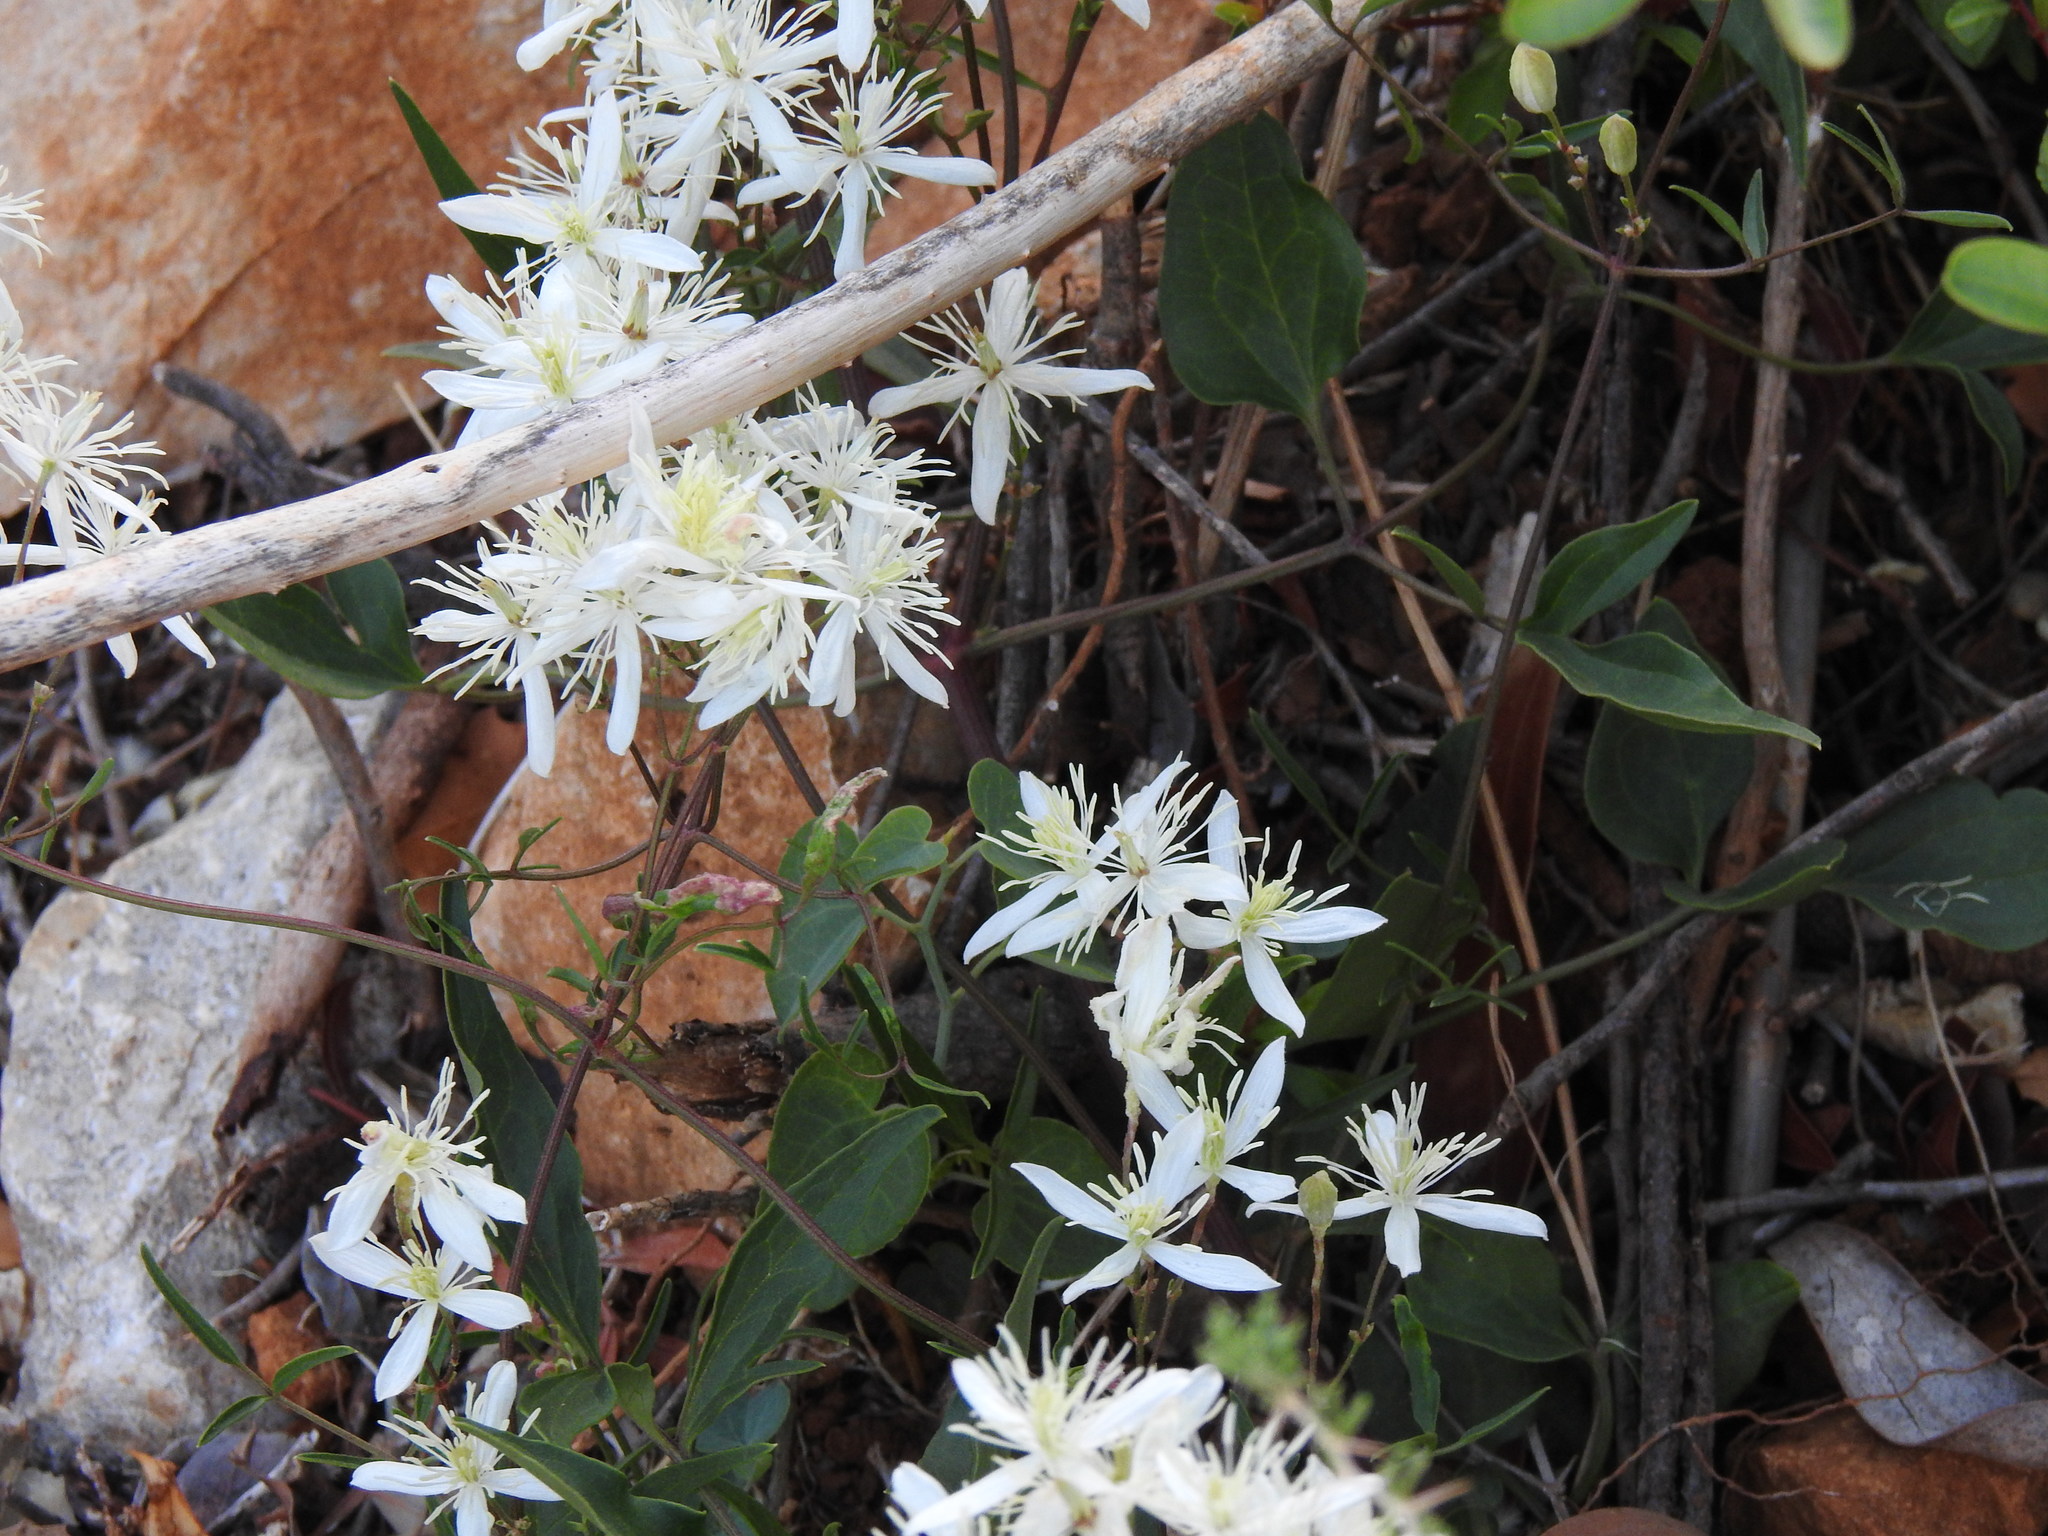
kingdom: Plantae
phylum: Tracheophyta
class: Magnoliopsida
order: Ranunculales
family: Ranunculaceae
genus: Clematis
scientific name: Clematis flammula
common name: Virgin's-bower
